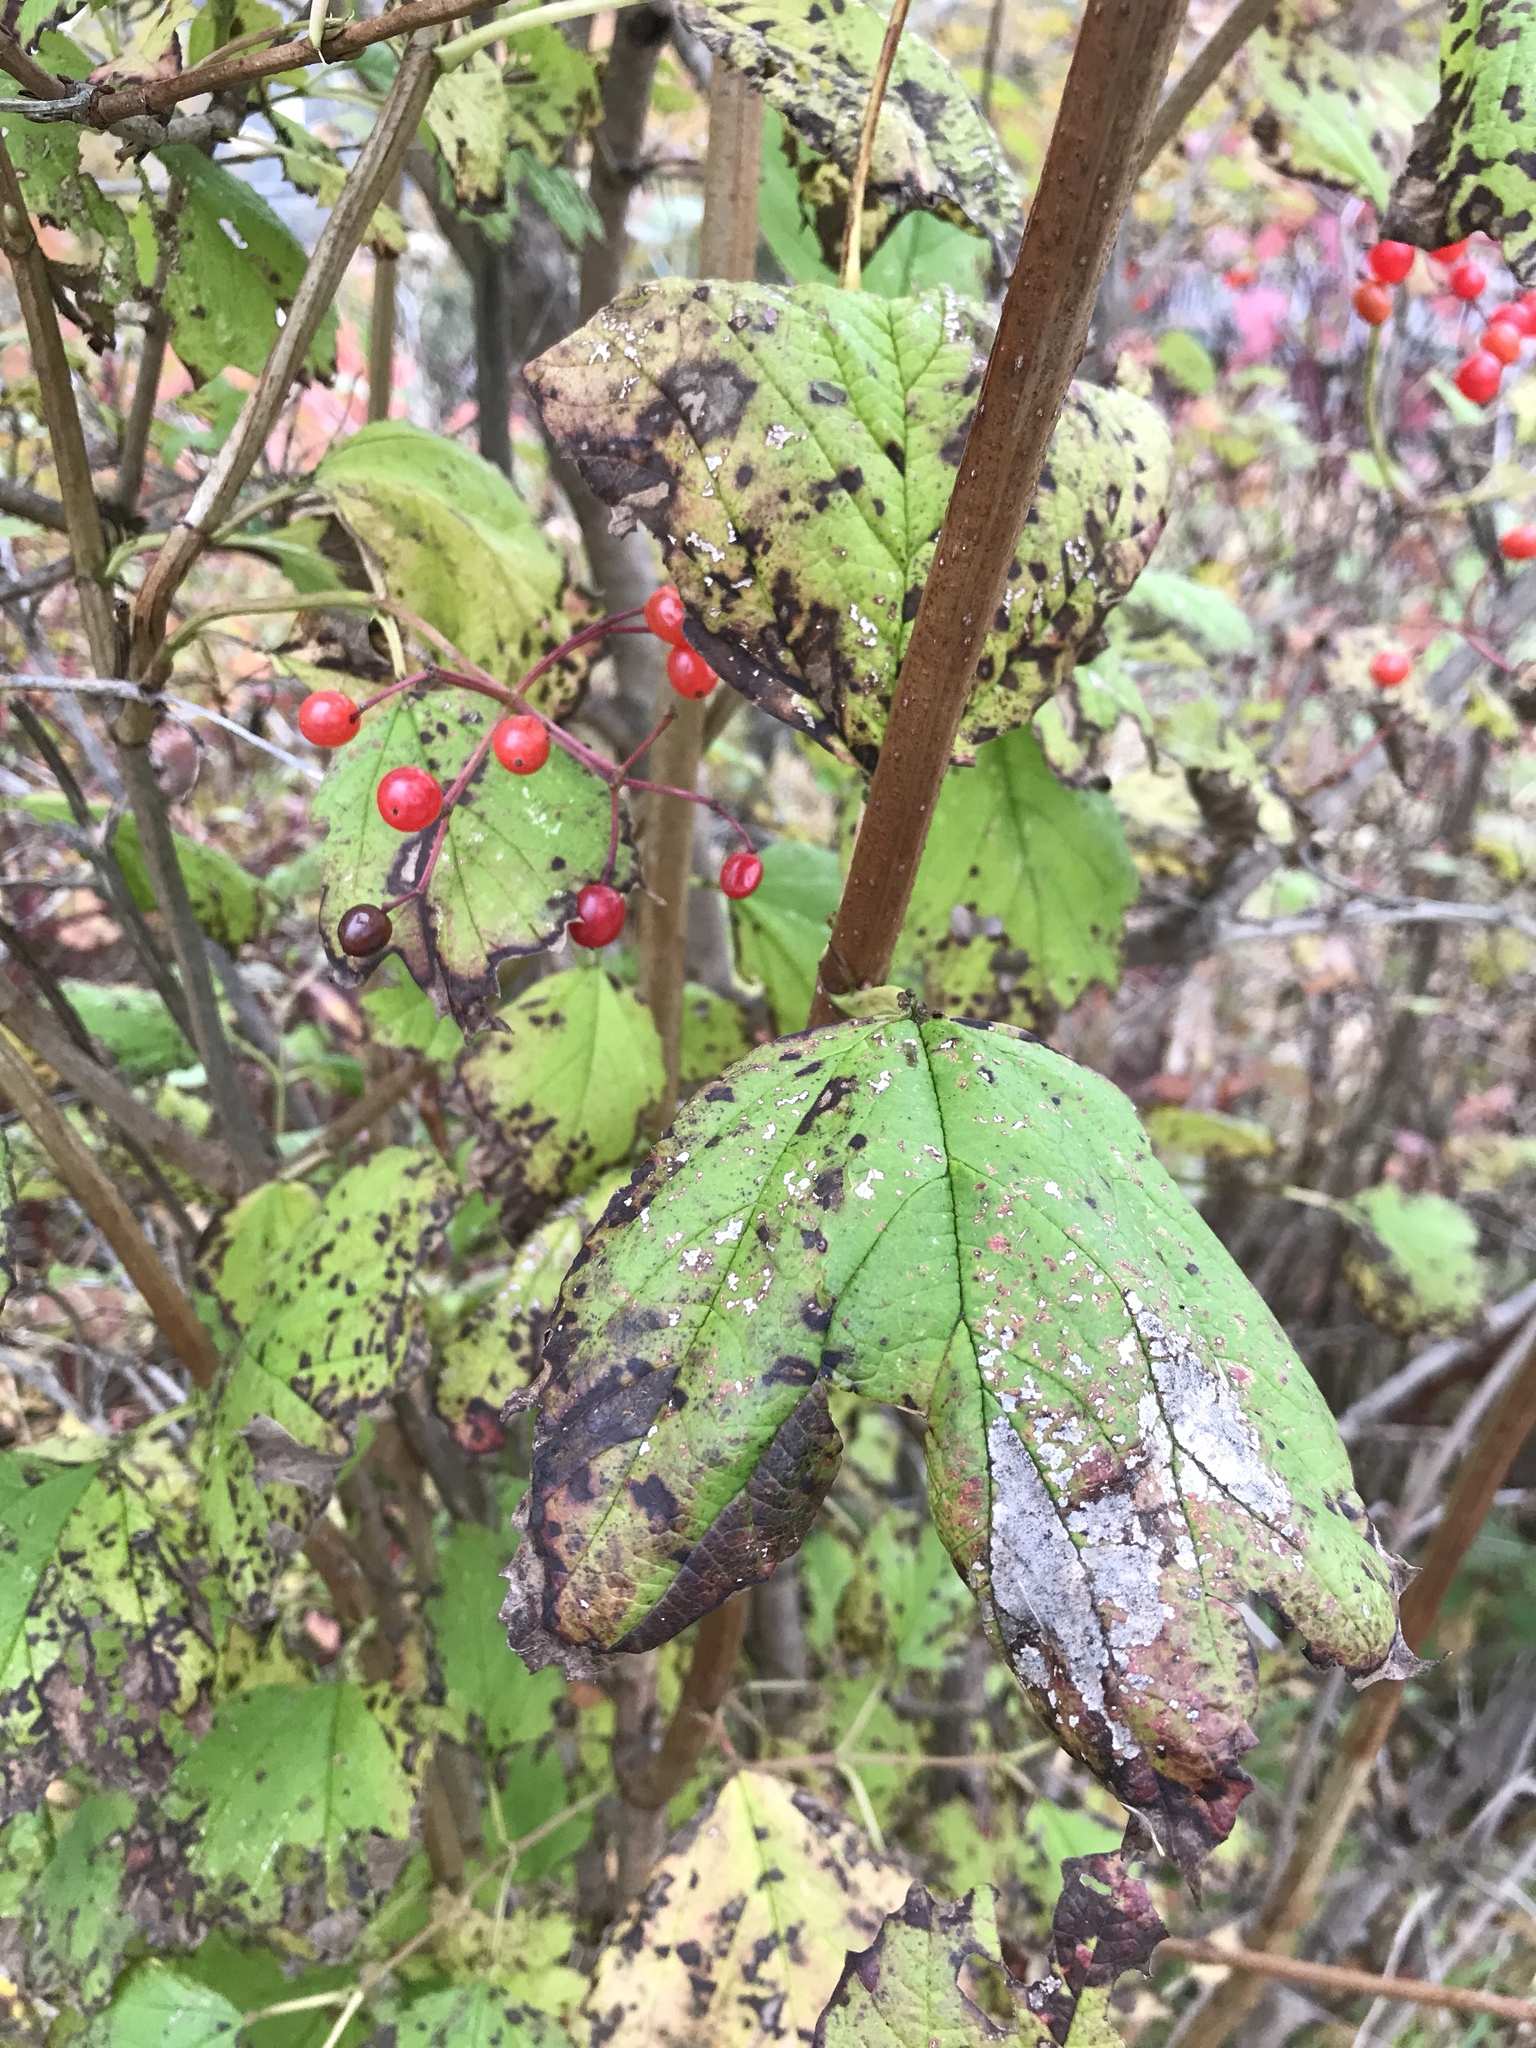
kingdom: Plantae
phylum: Tracheophyta
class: Magnoliopsida
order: Dipsacales
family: Viburnaceae
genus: Viburnum
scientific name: Viburnum opulus
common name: Guelder-rose
